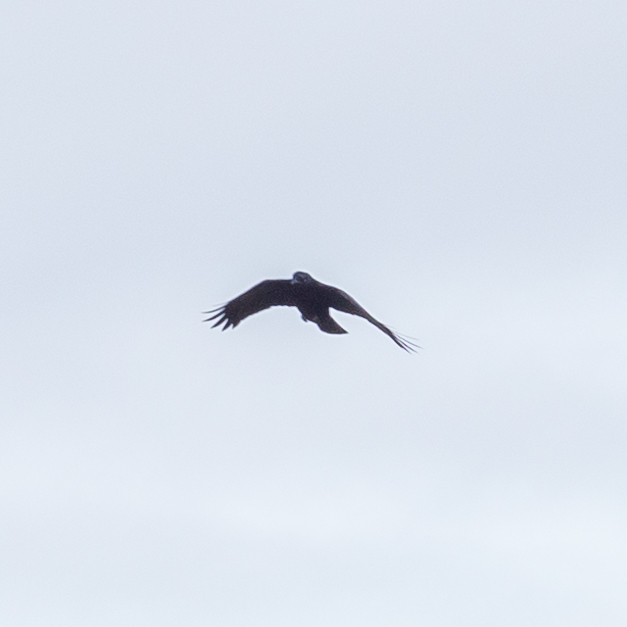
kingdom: Animalia
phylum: Chordata
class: Aves
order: Passeriformes
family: Corvidae
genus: Corvus
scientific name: Corvus corone
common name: Carrion crow
